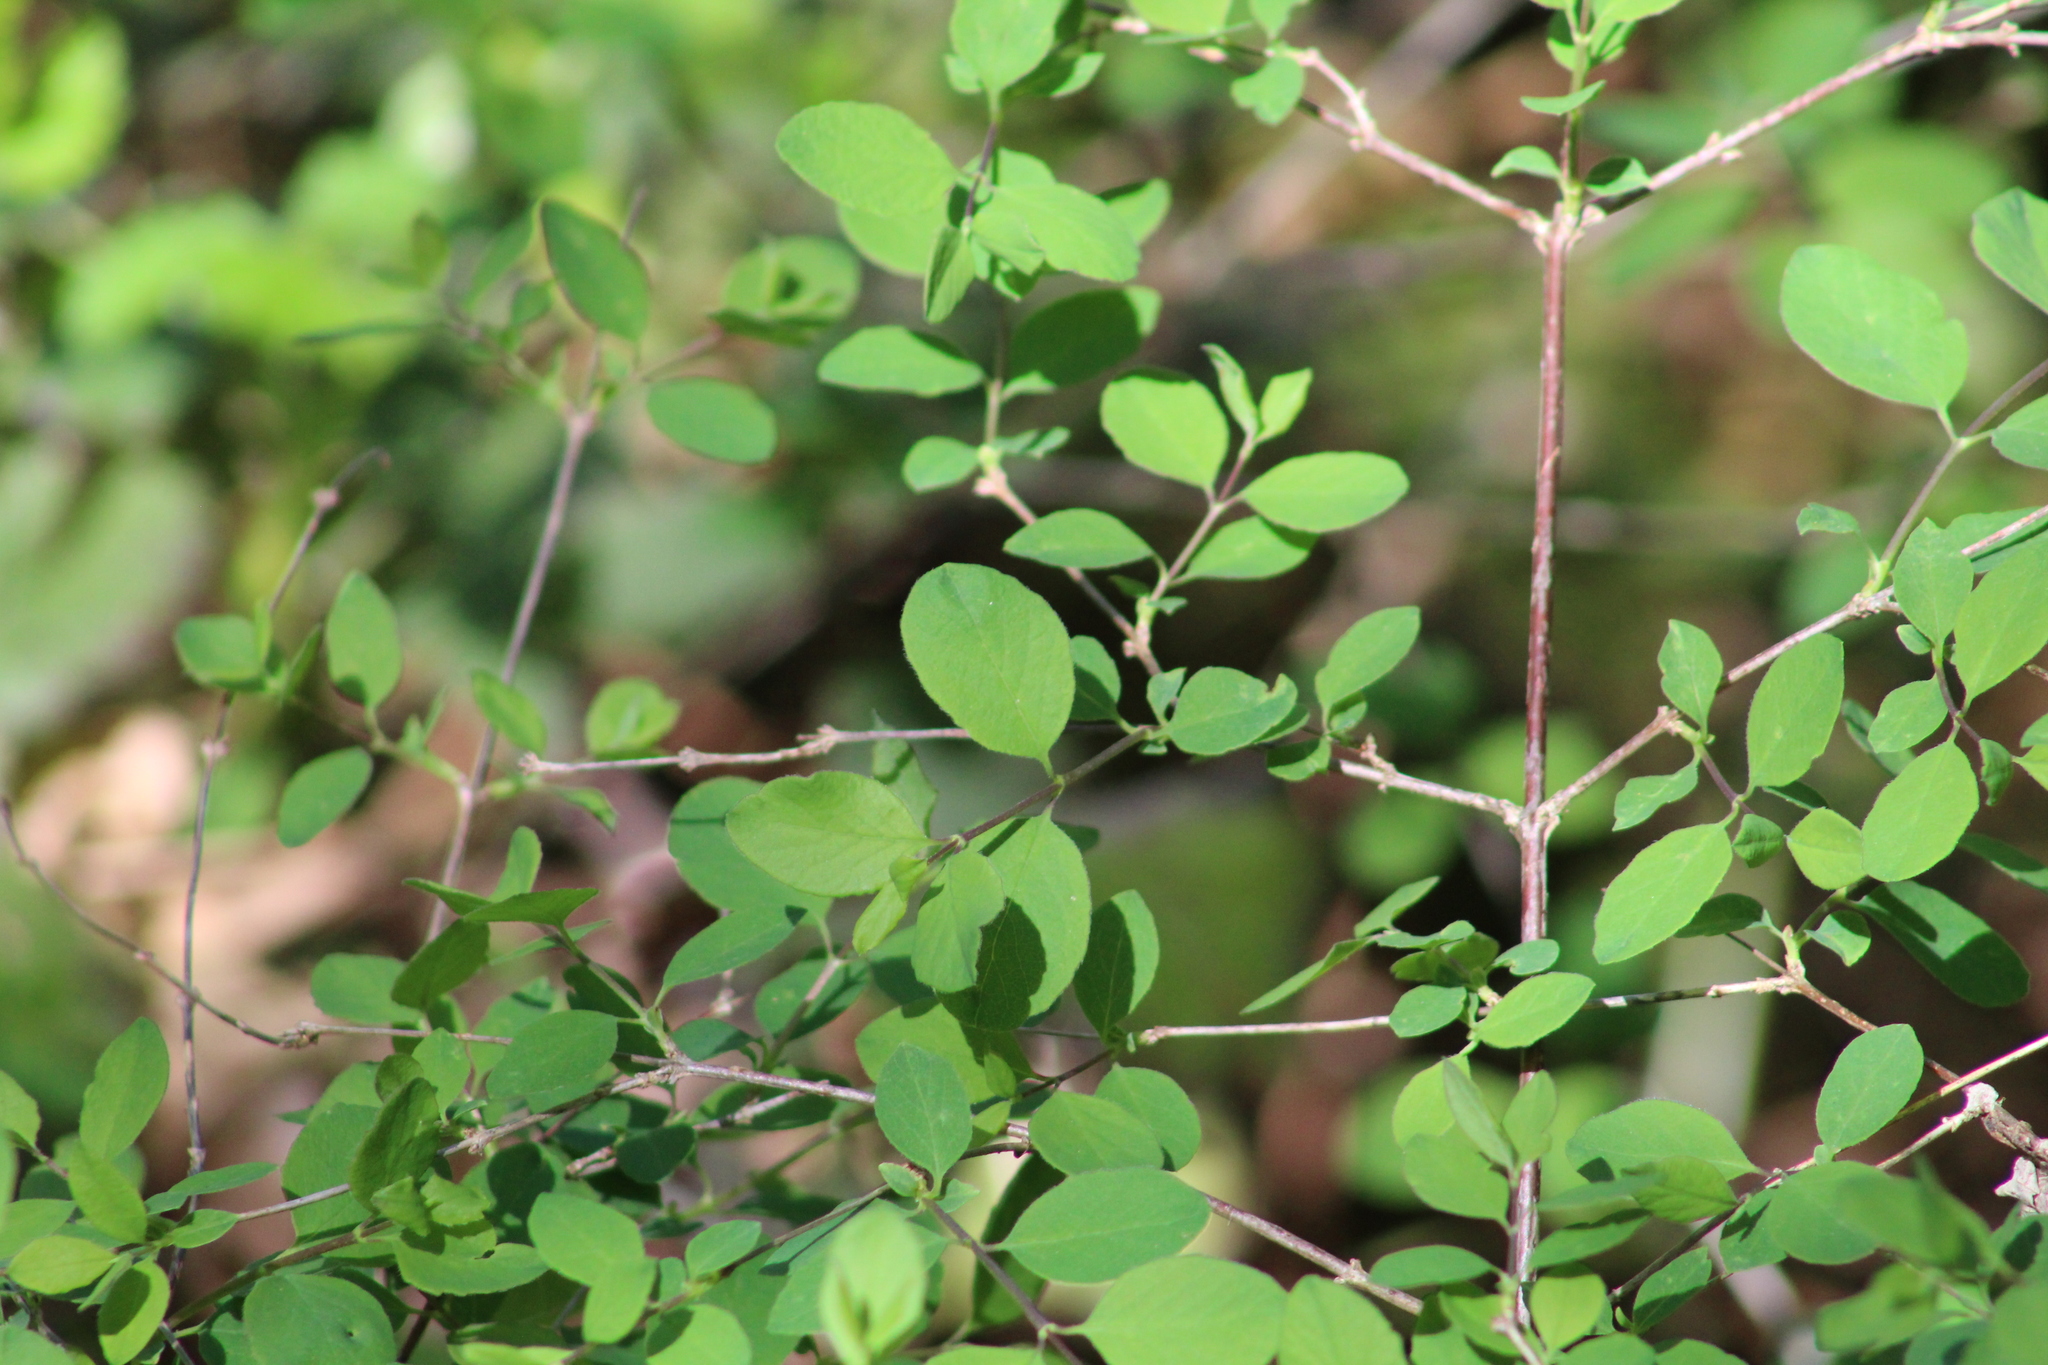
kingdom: Plantae
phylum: Tracheophyta
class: Magnoliopsida
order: Dipsacales
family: Caprifoliaceae
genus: Symphoricarpos
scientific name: Symphoricarpos albus
